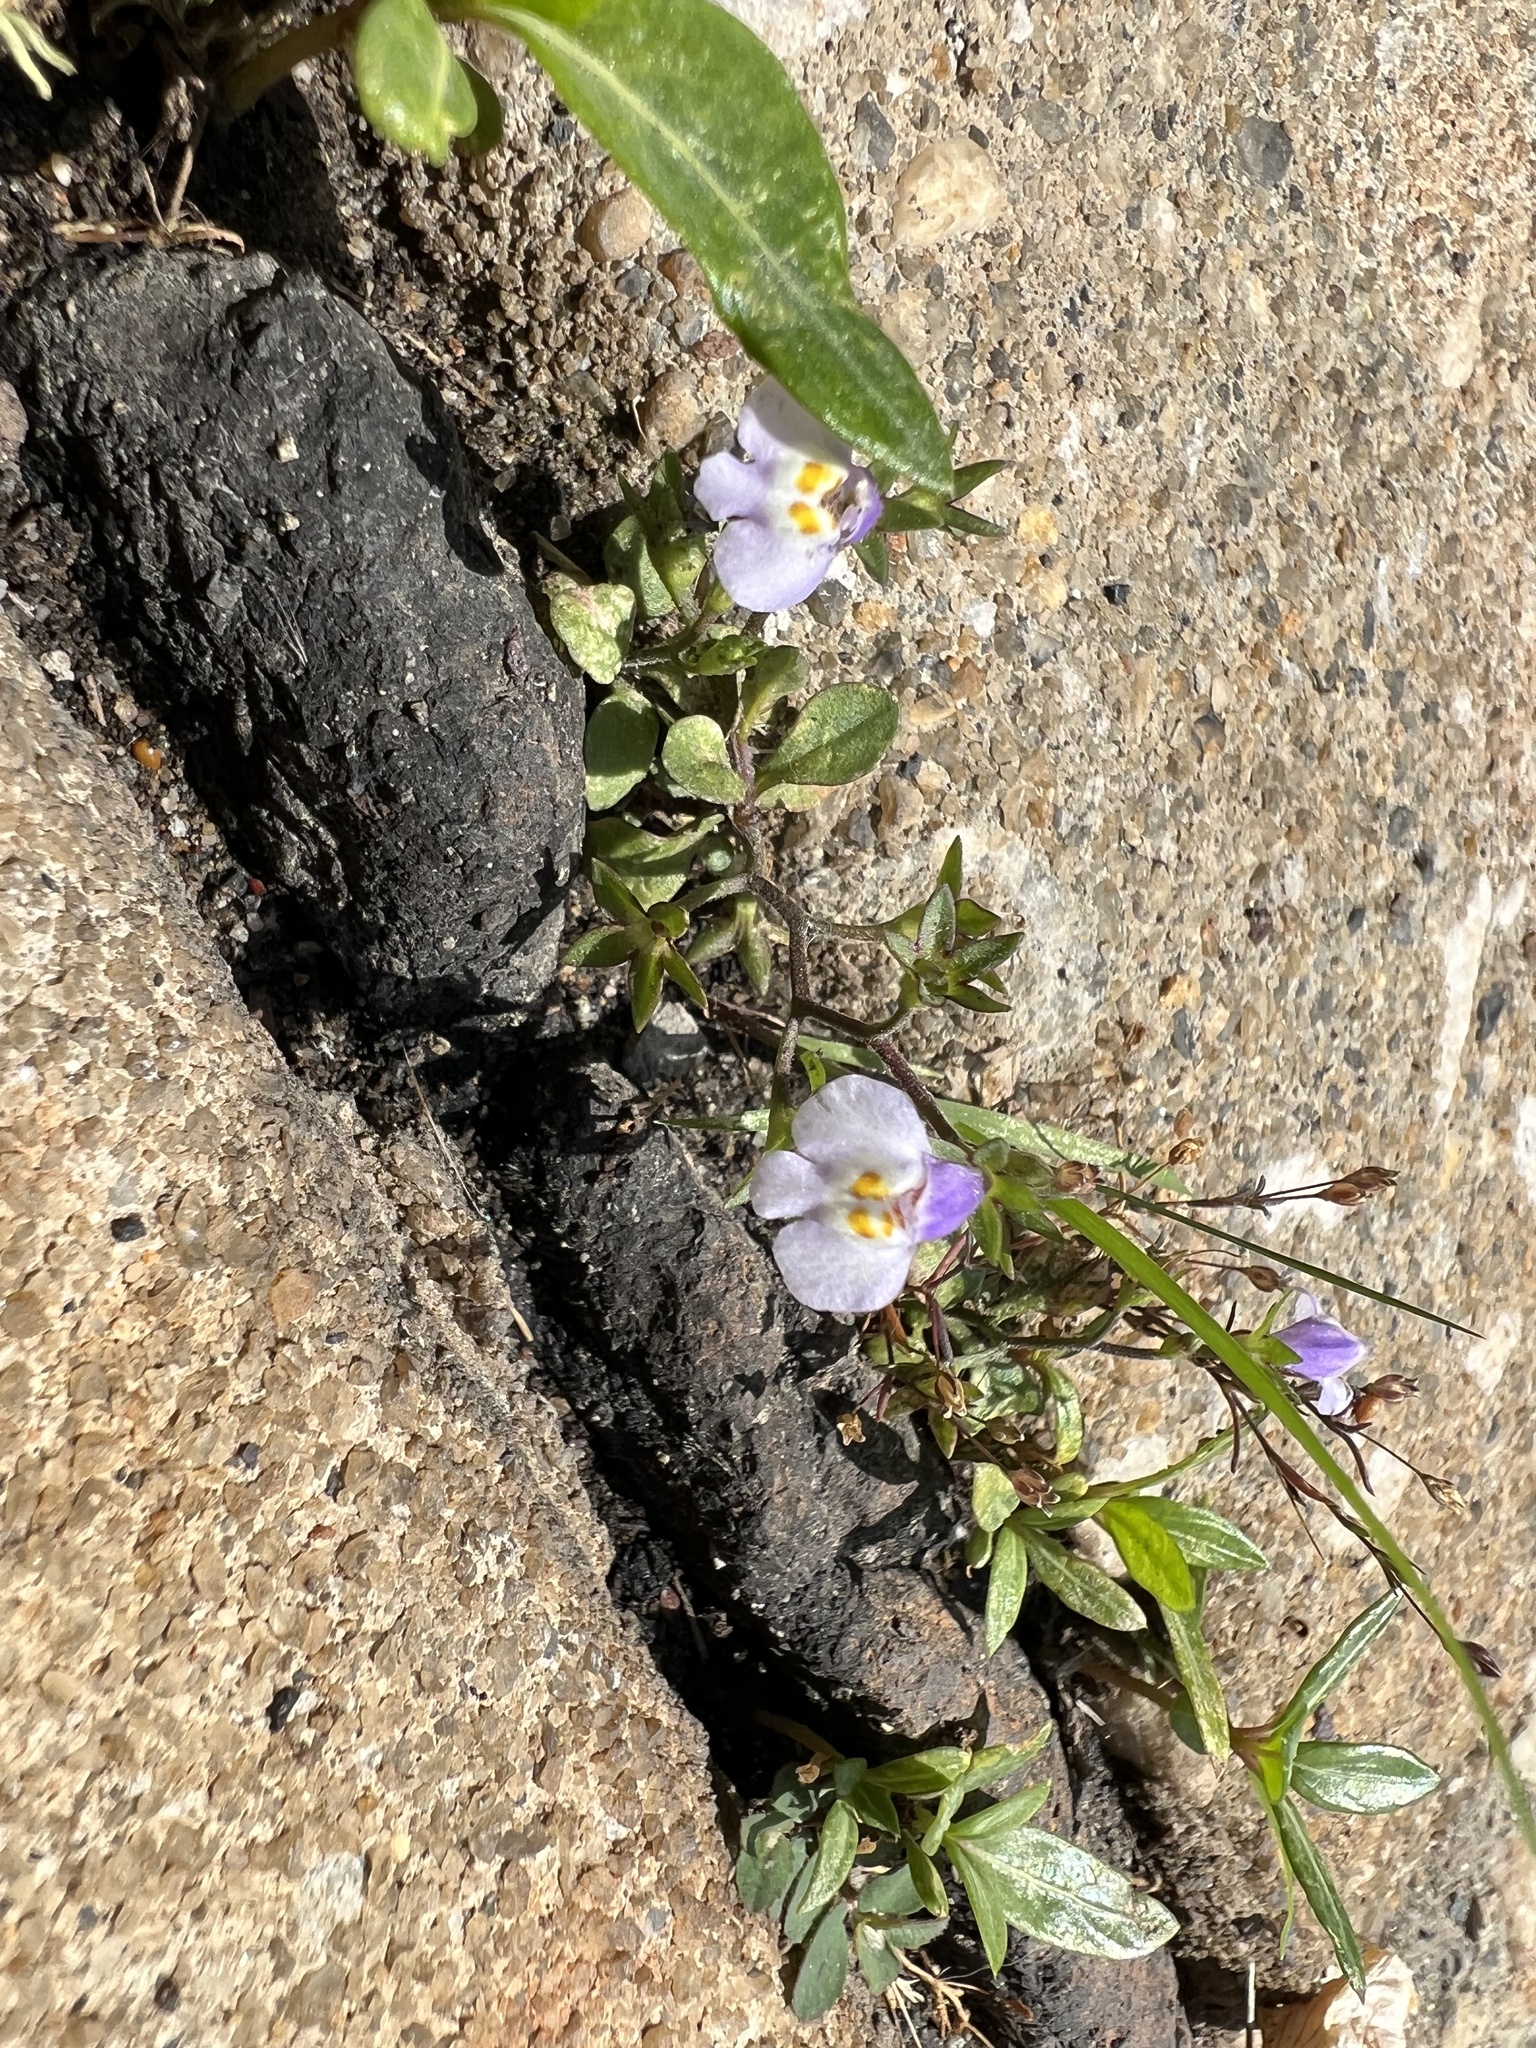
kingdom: Plantae
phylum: Tracheophyta
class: Magnoliopsida
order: Lamiales
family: Mazaceae
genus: Mazus
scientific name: Mazus pumilus
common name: Japanese mazus
